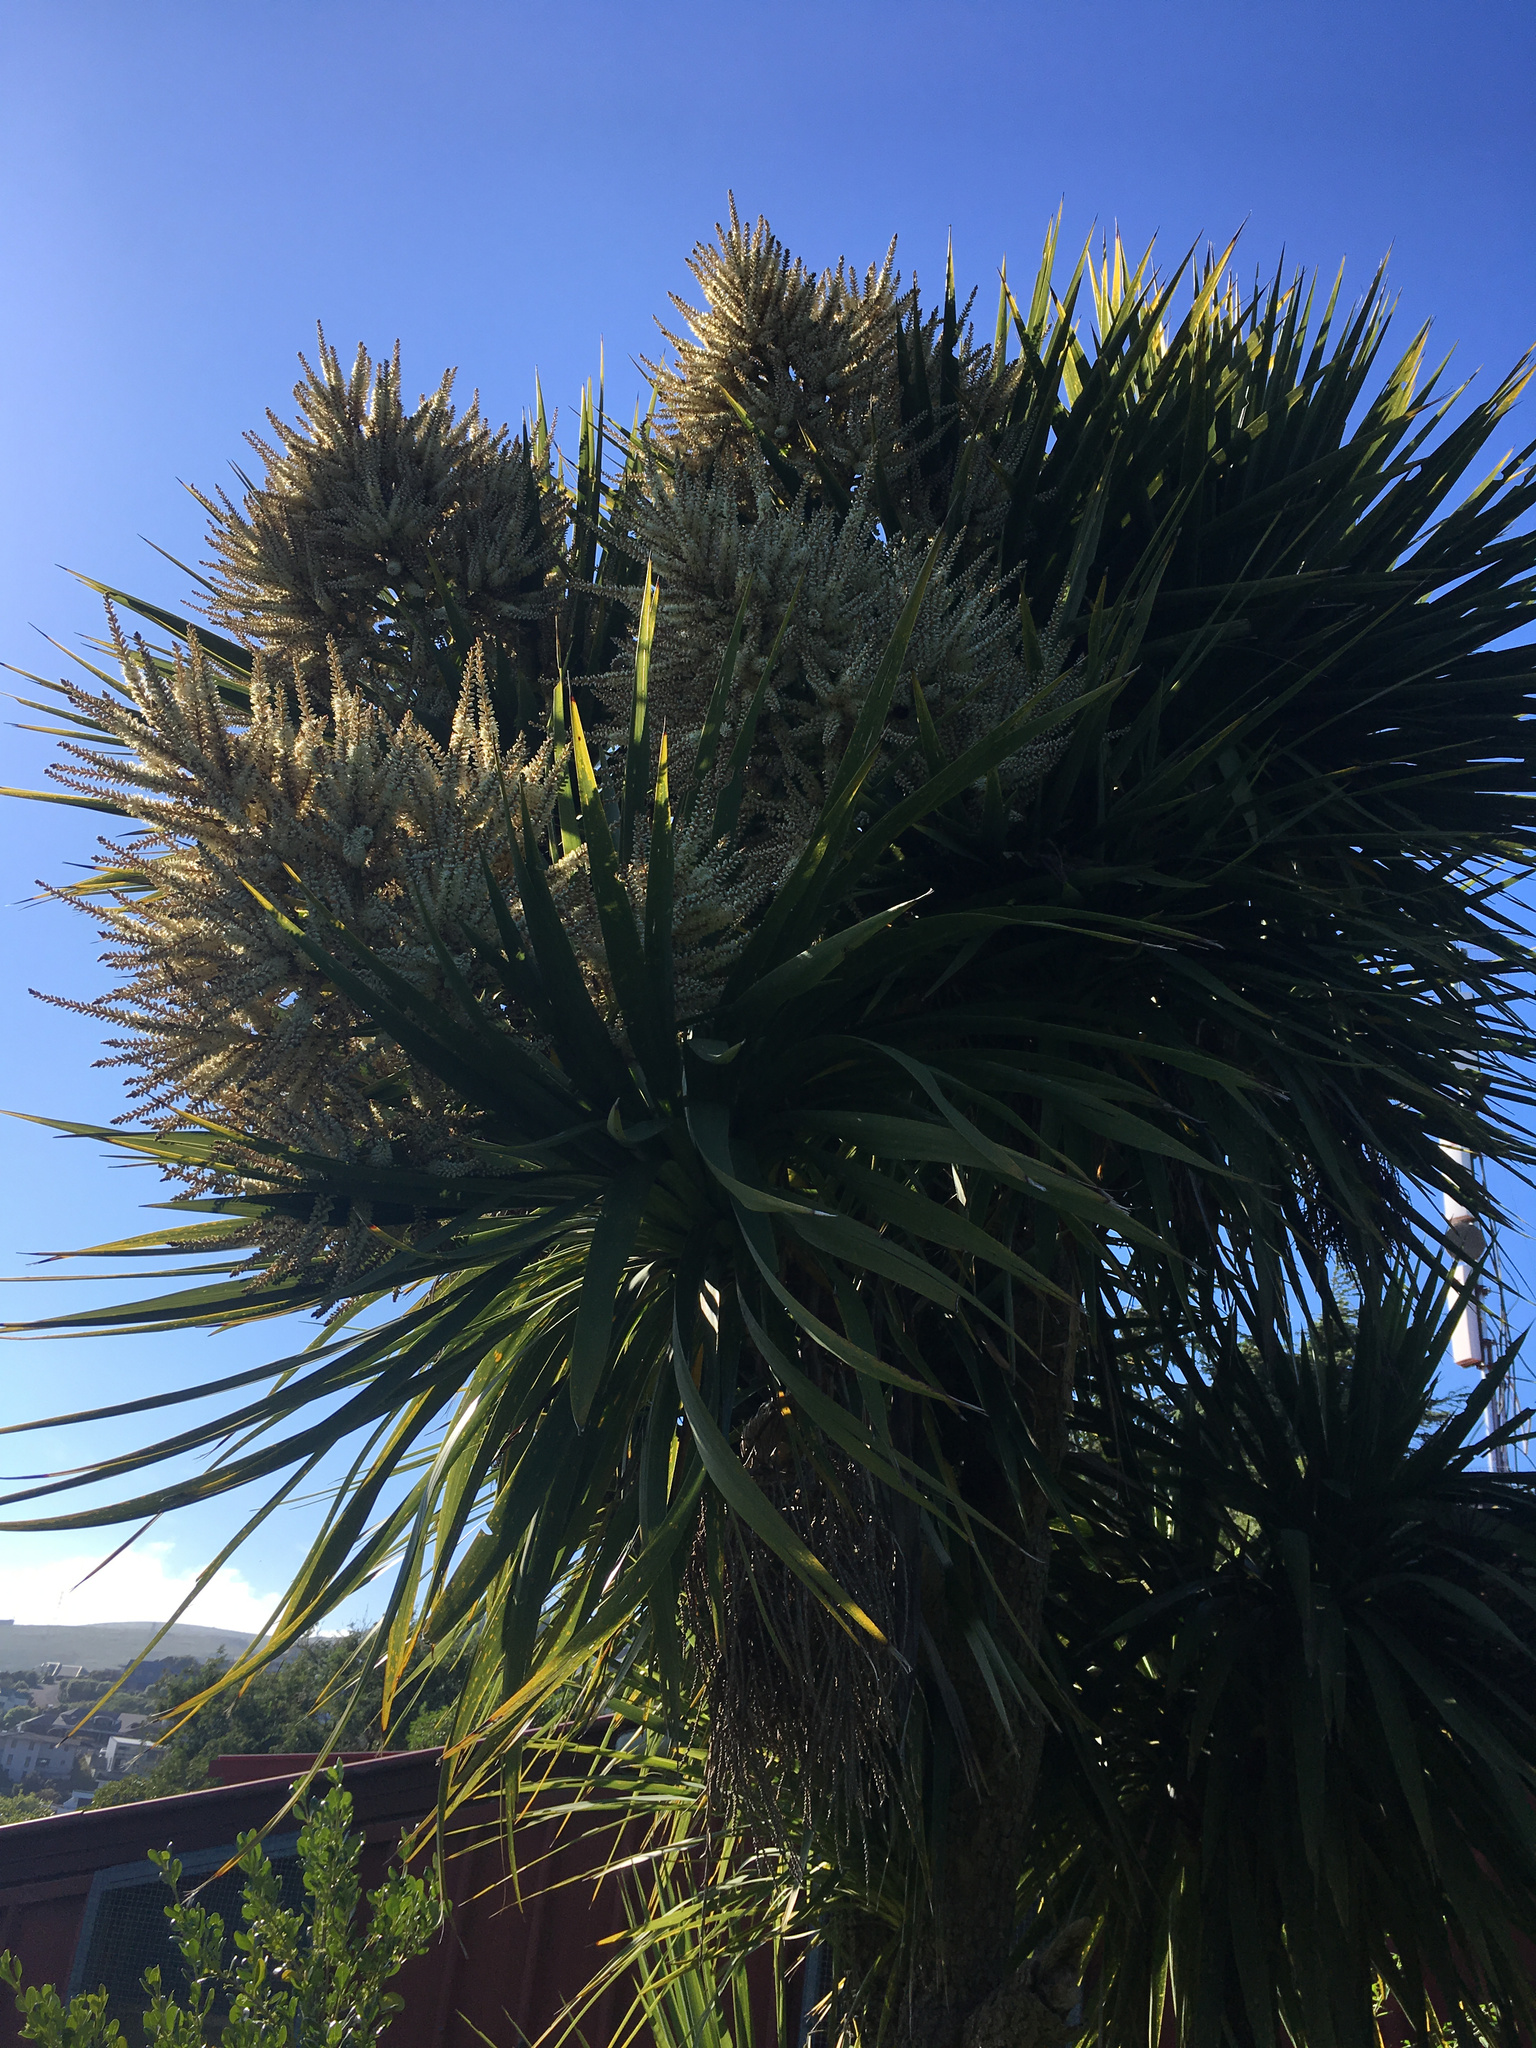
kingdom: Plantae
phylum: Tracheophyta
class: Liliopsida
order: Asparagales
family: Asparagaceae
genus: Cordyline
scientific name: Cordyline australis
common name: Cabbage-palm
